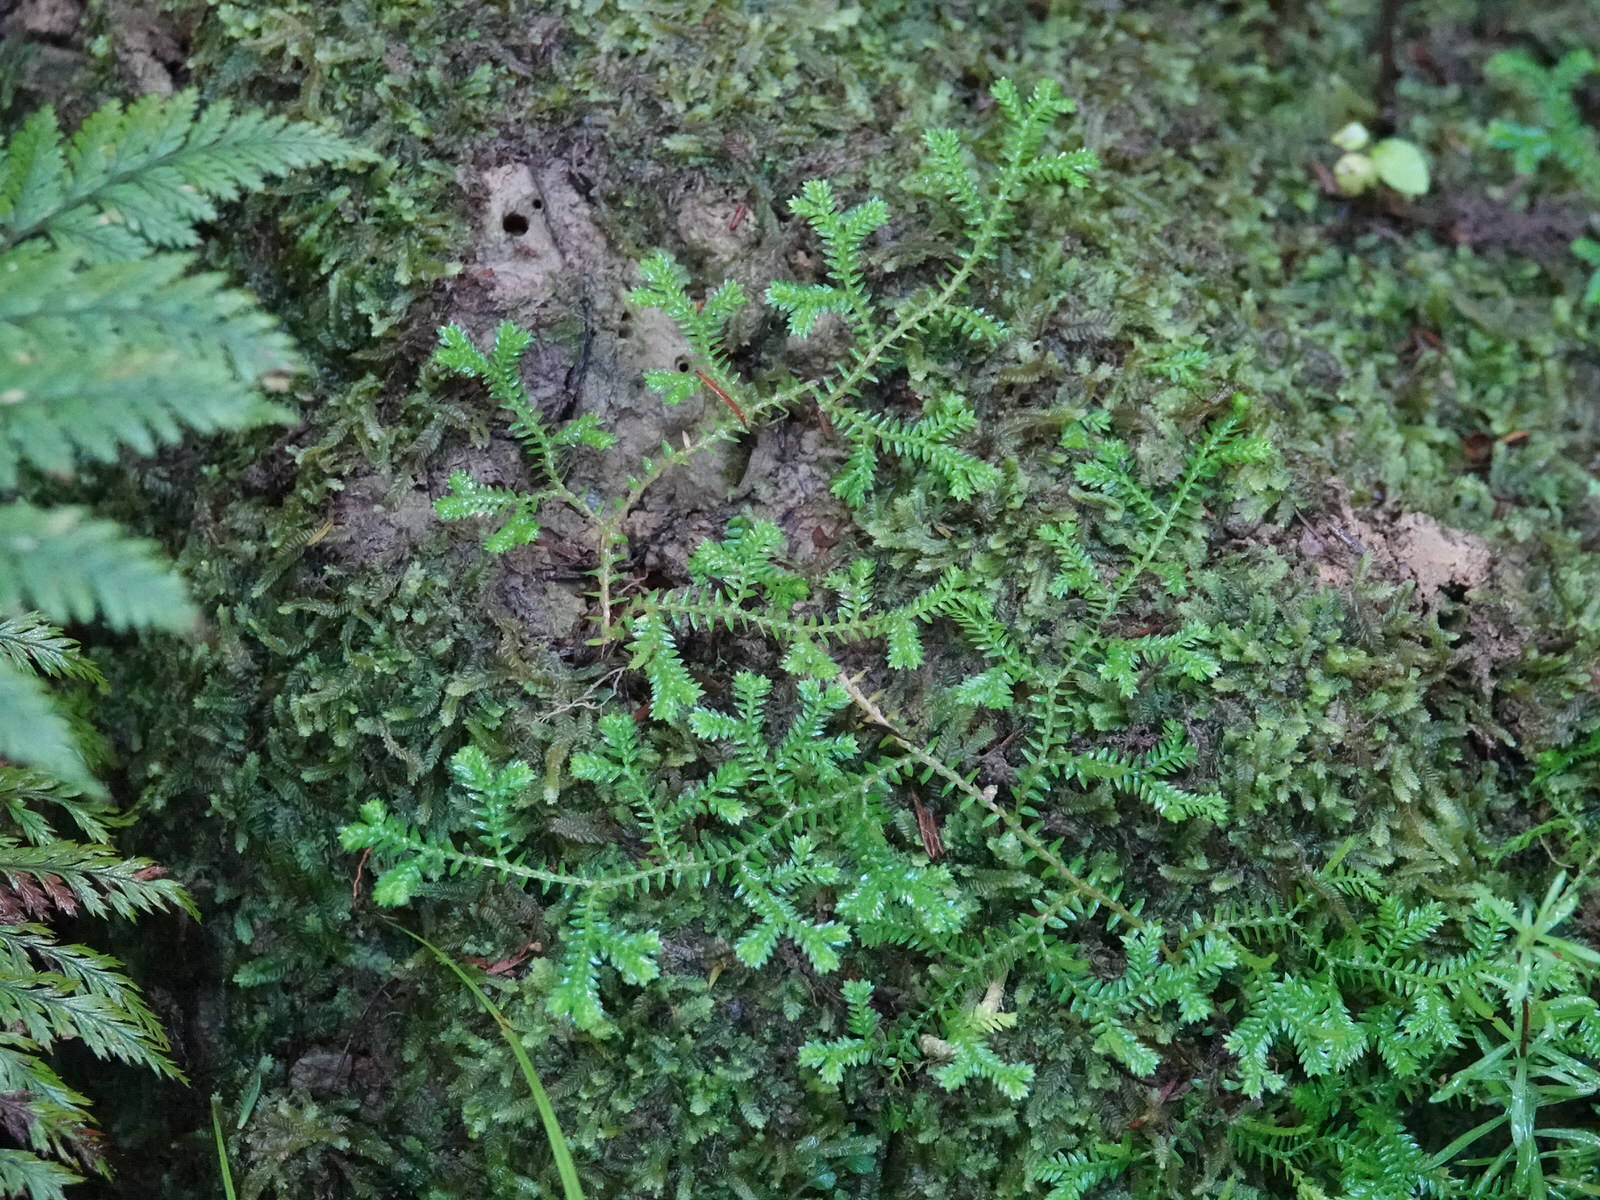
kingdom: Plantae
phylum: Tracheophyta
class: Lycopodiopsida
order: Selaginellales
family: Selaginellaceae
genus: Selaginella
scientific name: Selaginella kraussiana
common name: Krauss' spikemoss
